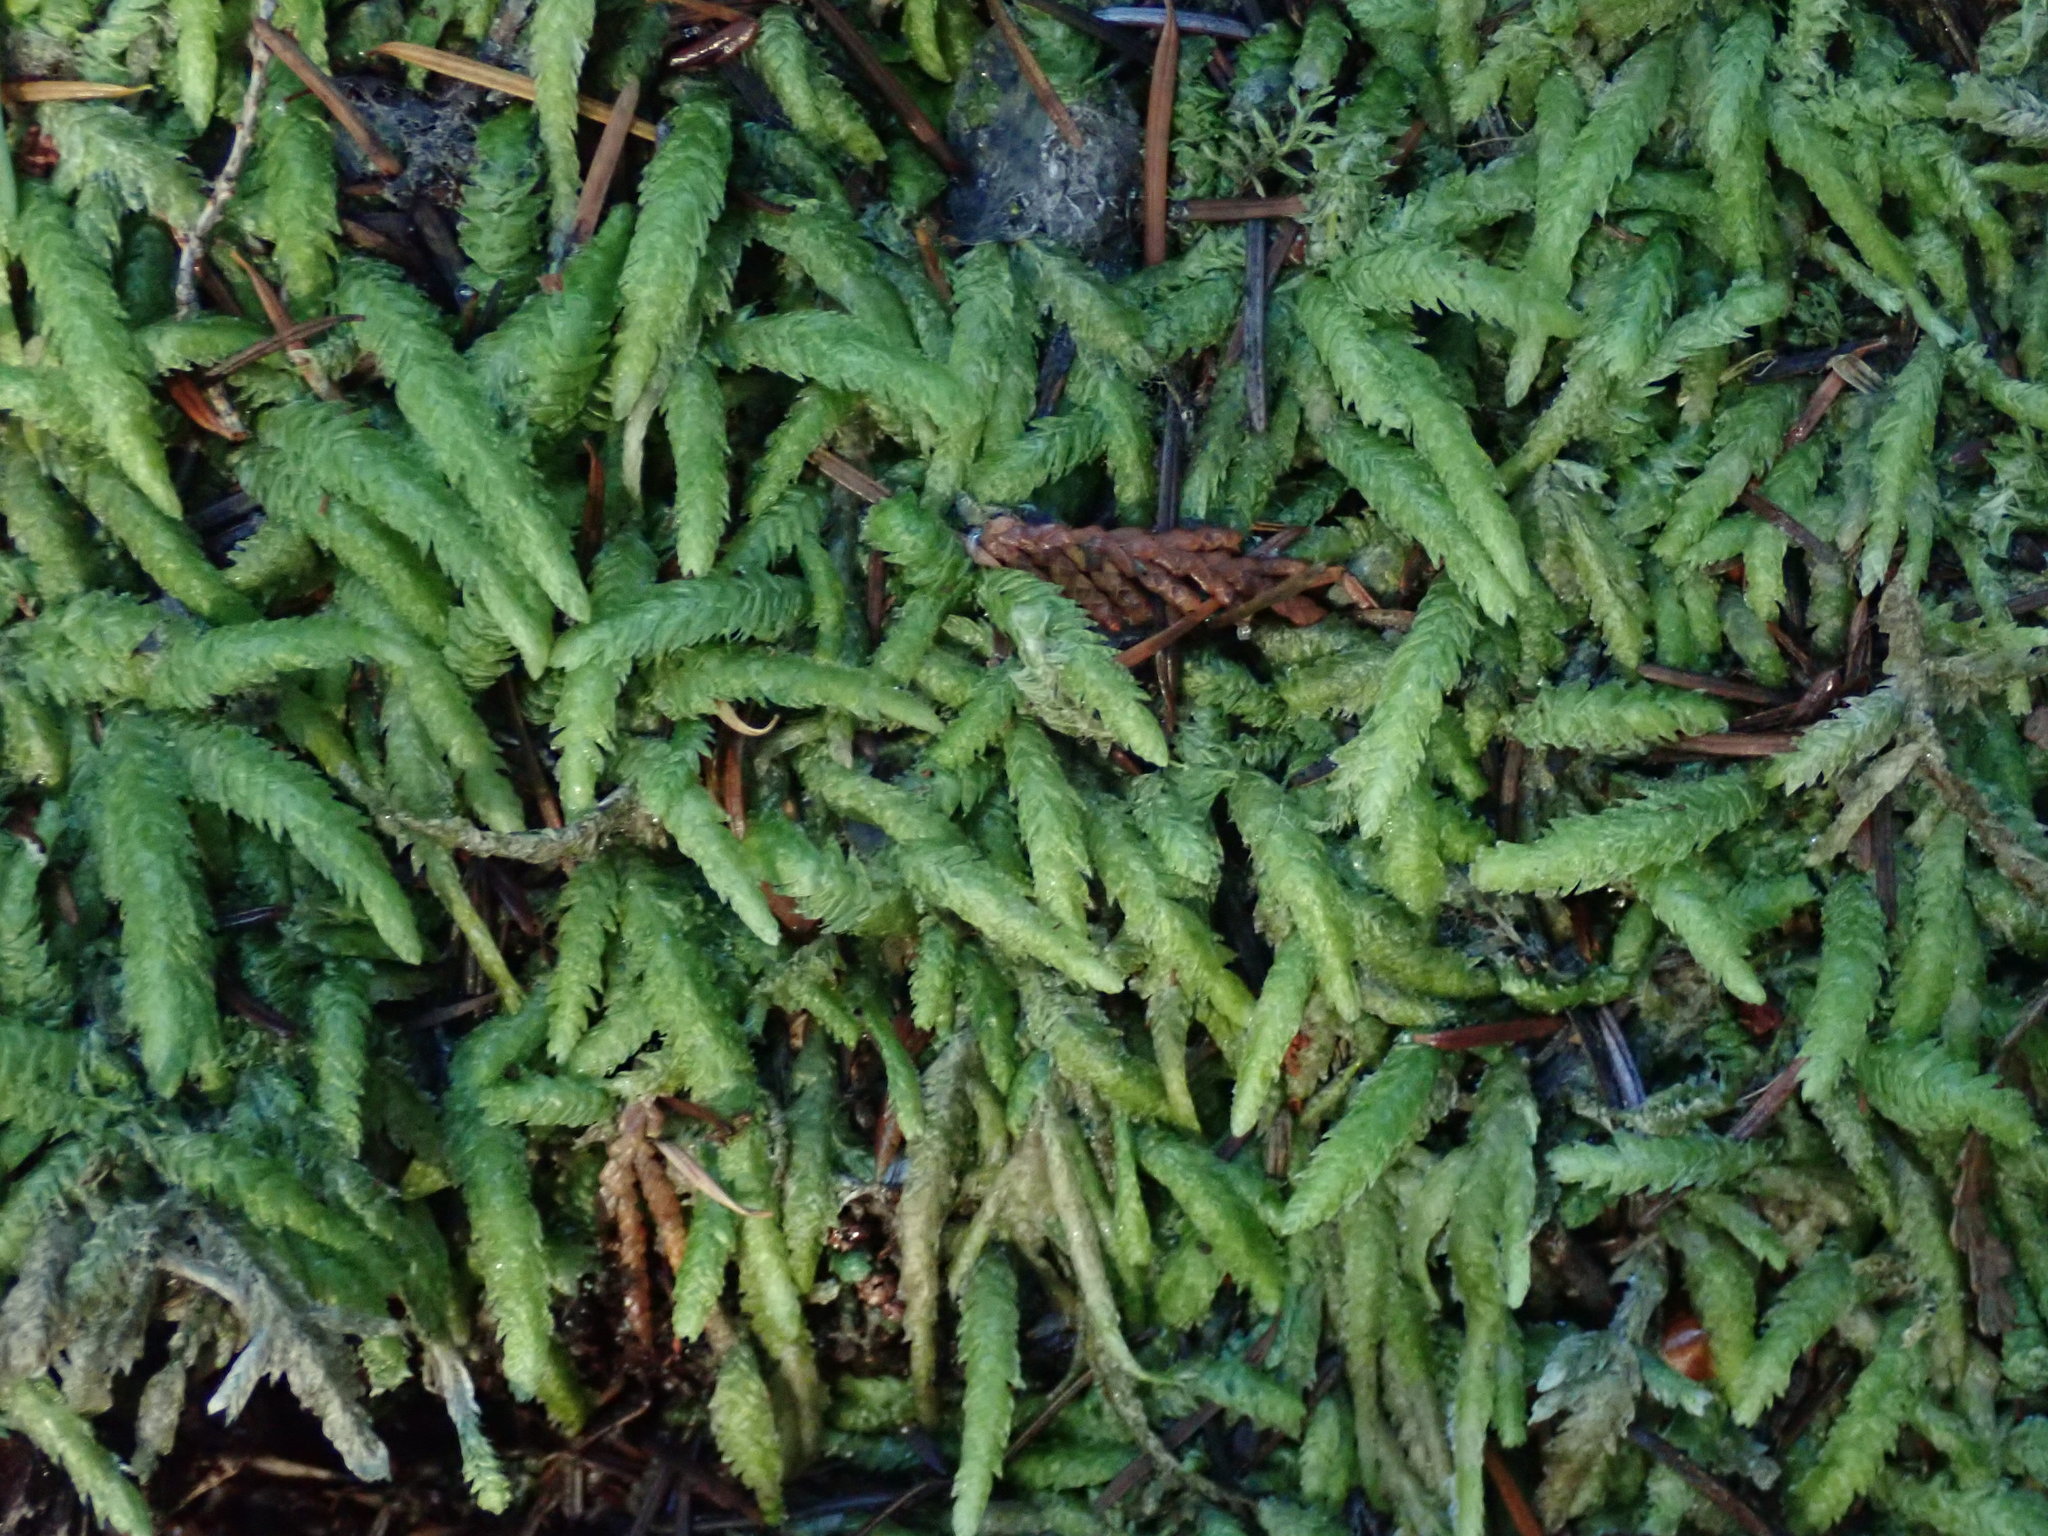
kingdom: Plantae
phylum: Bryophyta
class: Bryopsida
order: Hypnales
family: Plagiotheciaceae
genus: Plagiothecium
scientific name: Plagiothecium undulatum
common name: Waved silk-moss
